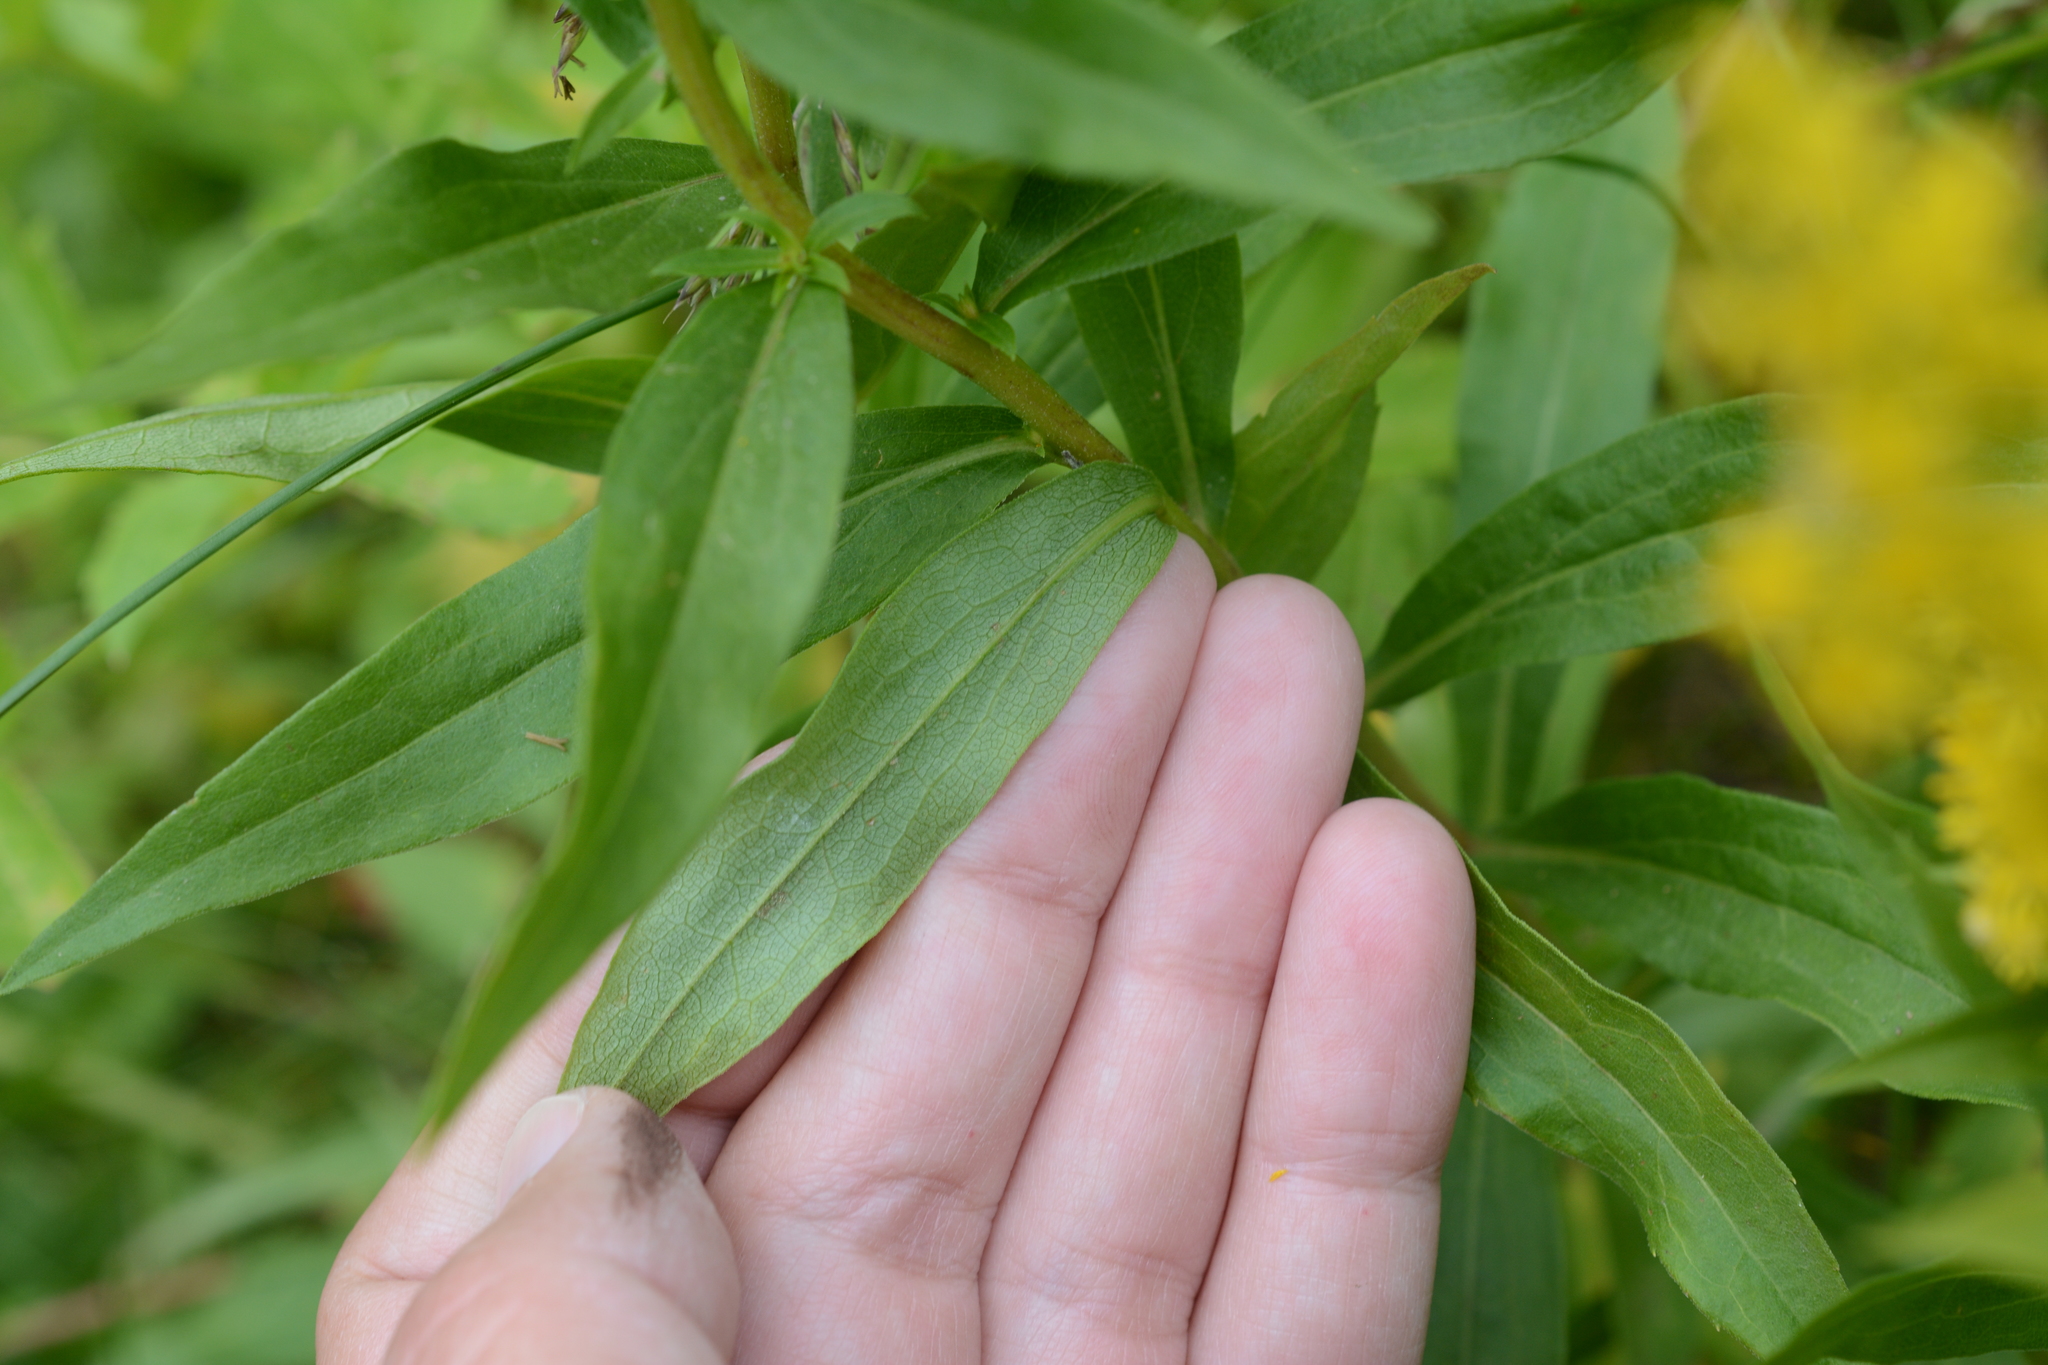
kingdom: Plantae
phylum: Tracheophyta
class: Magnoliopsida
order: Asterales
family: Asteraceae
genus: Solidago
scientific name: Solidago lepida
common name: Western canada goldenrod
